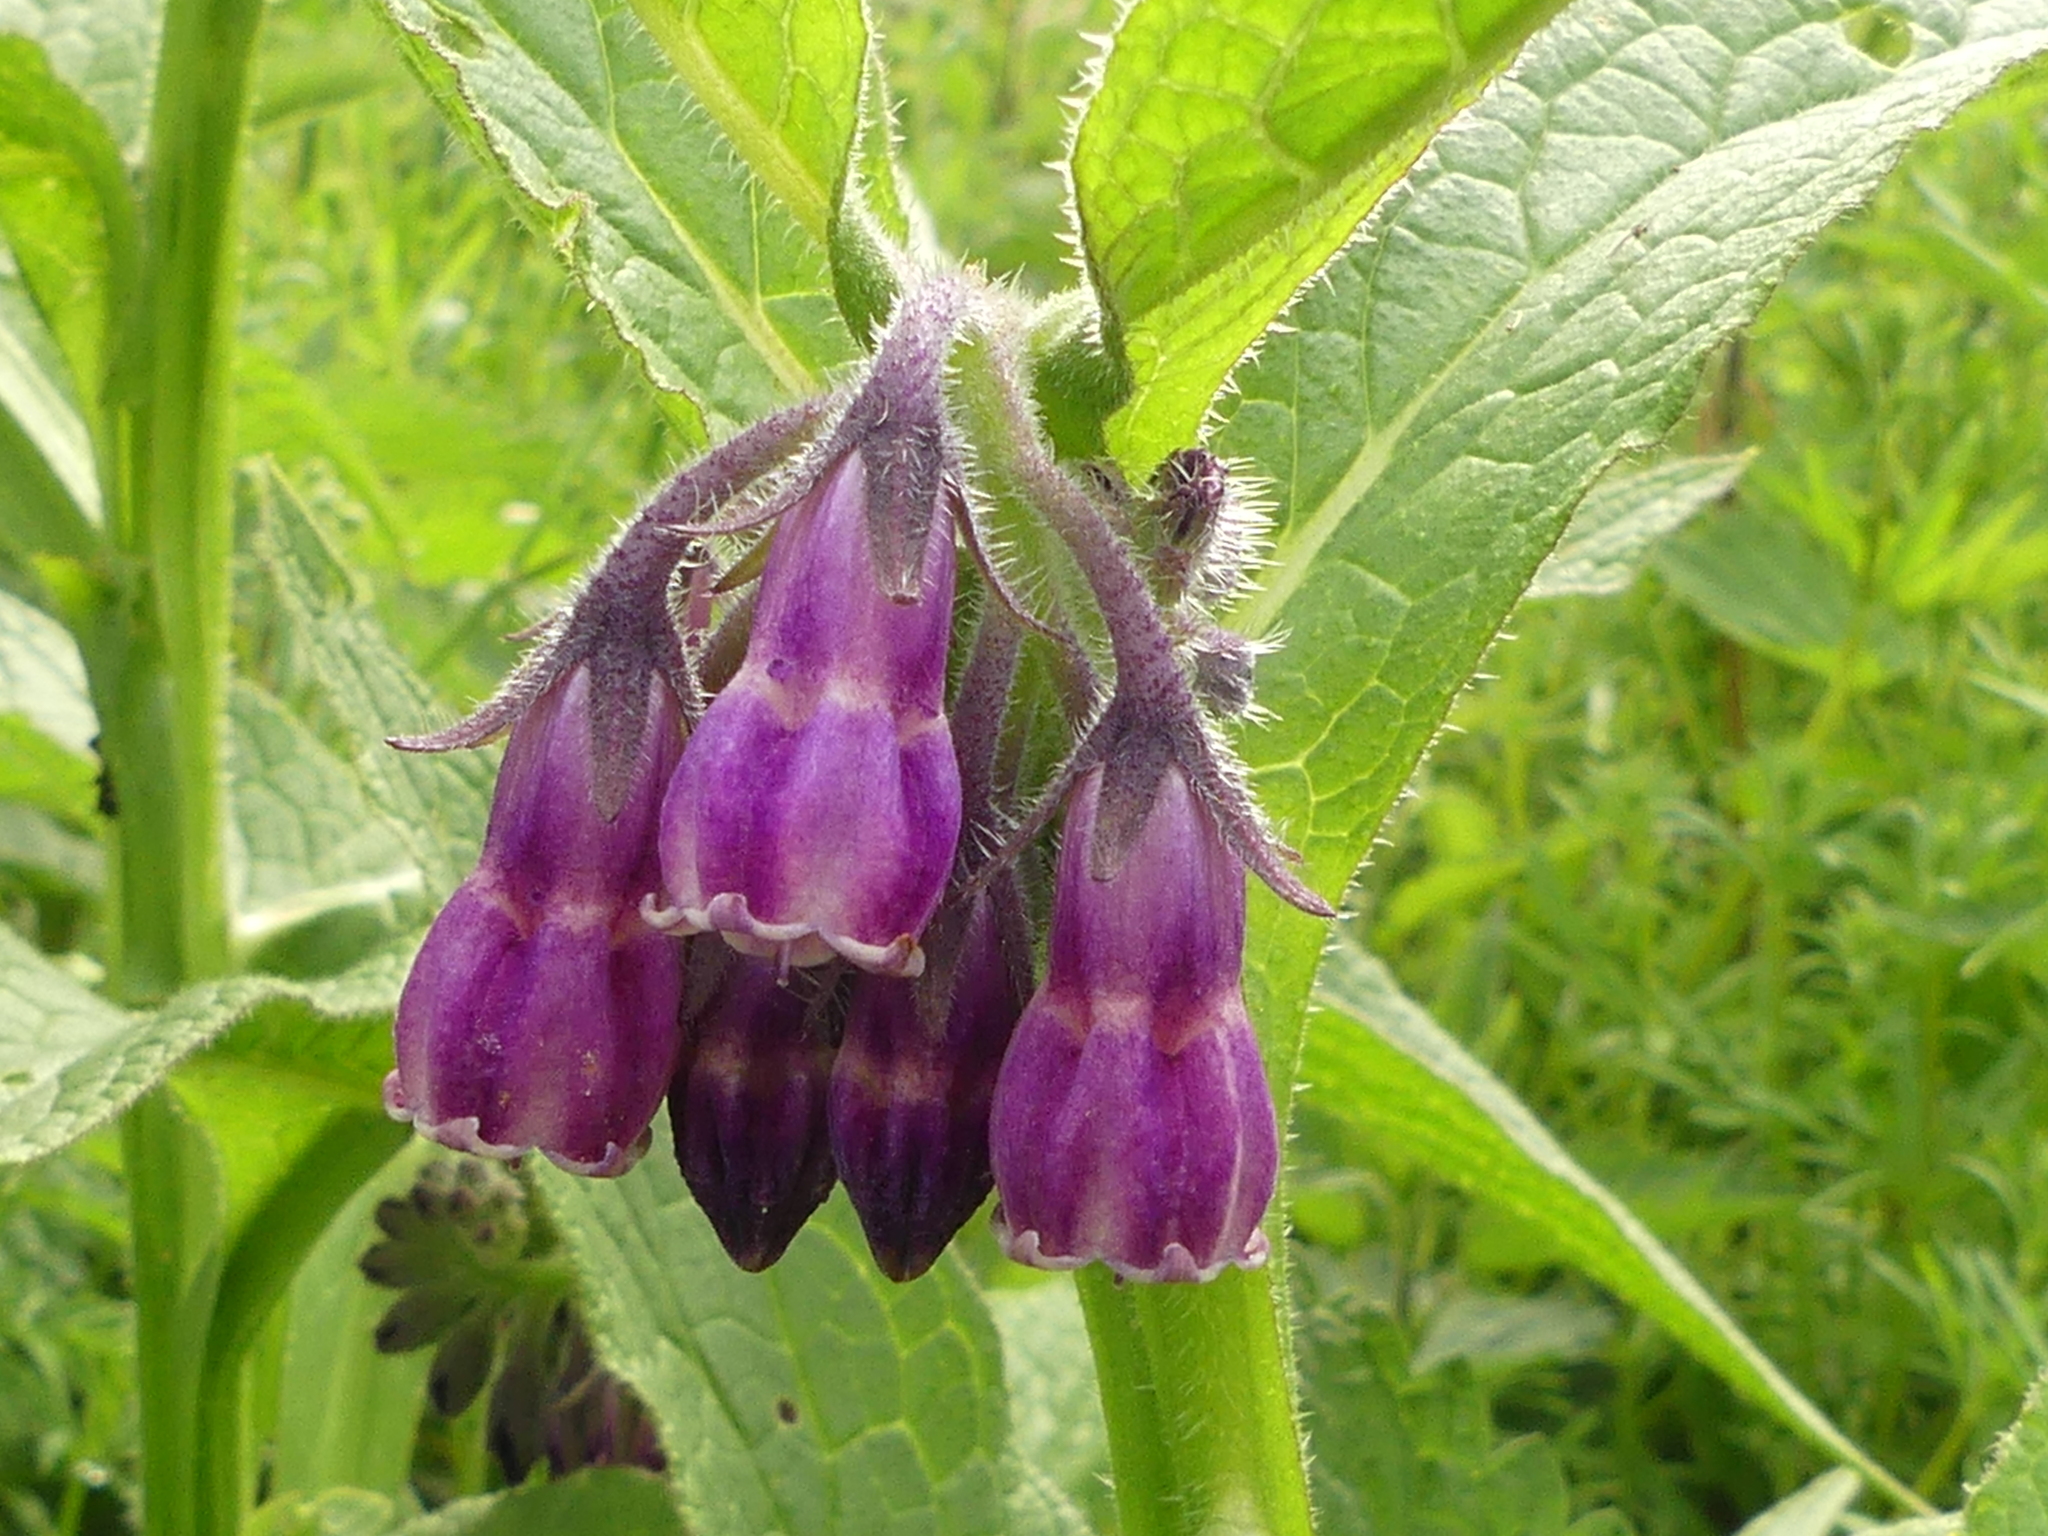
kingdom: Plantae
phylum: Tracheophyta
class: Magnoliopsida
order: Boraginales
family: Boraginaceae
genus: Symphytum
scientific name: Symphytum officinale
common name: Common comfrey
